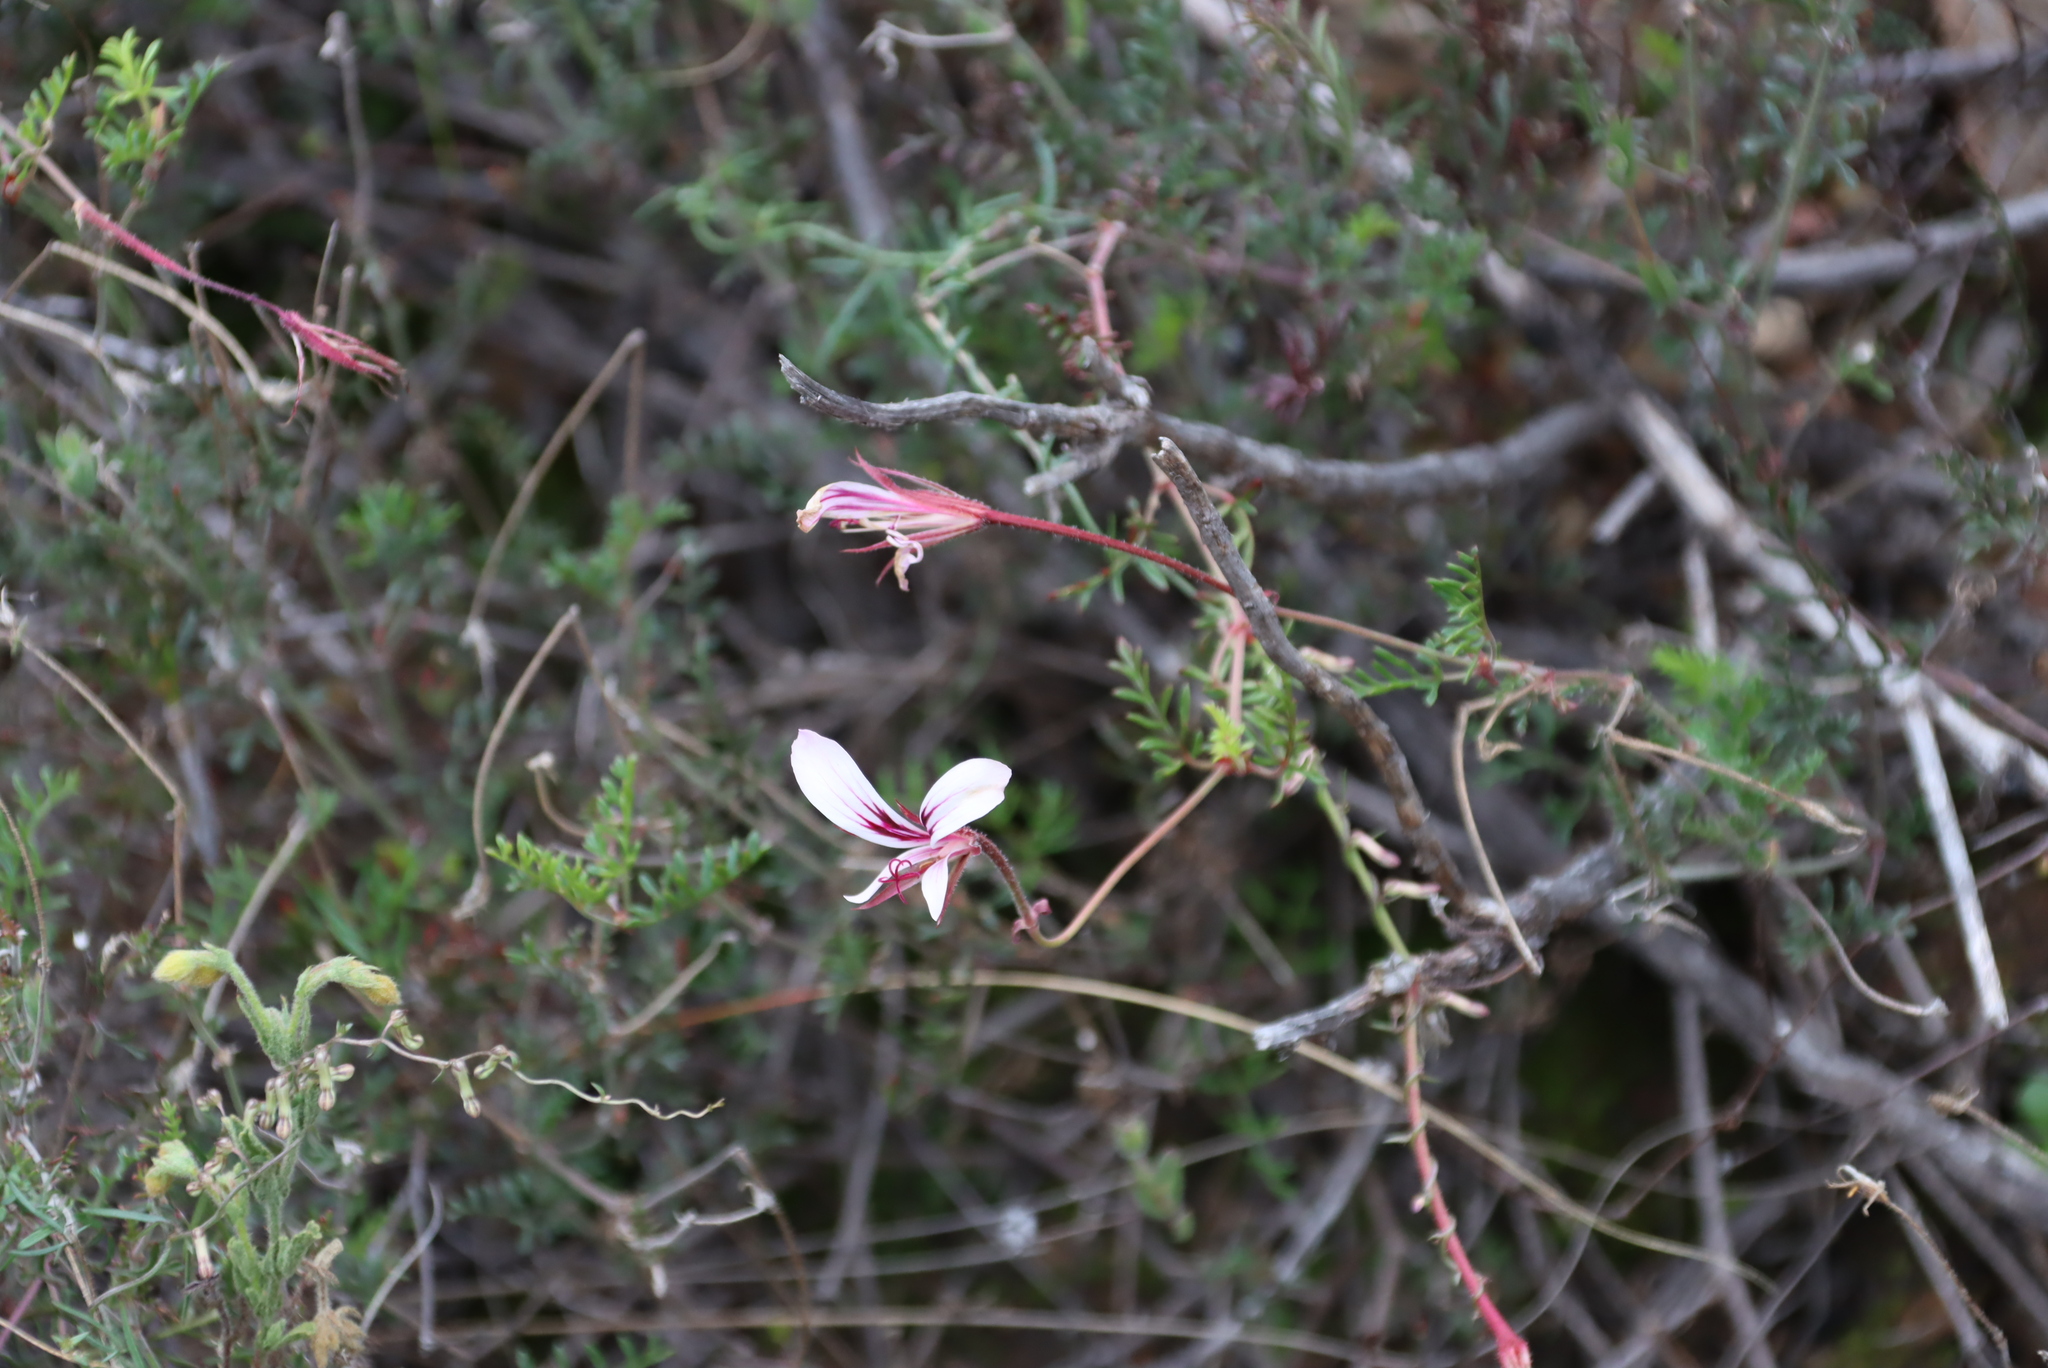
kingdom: Plantae
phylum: Tracheophyta
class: Magnoliopsida
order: Geraniales
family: Geraniaceae
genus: Pelargonium
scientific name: Pelargonium caucalifolium
